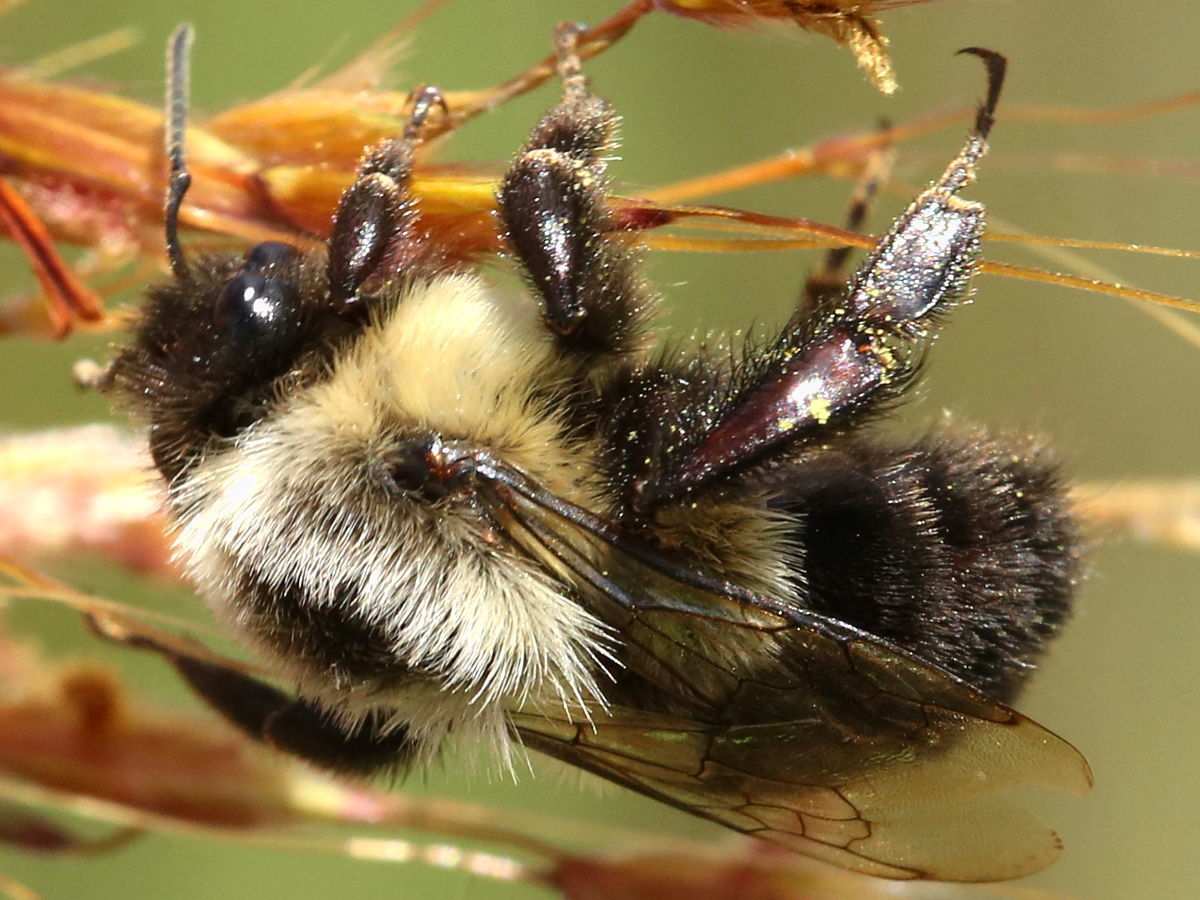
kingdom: Animalia
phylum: Arthropoda
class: Insecta
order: Hymenoptera
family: Apidae
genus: Bombus
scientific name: Bombus impatiens
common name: Common eastern bumble bee
